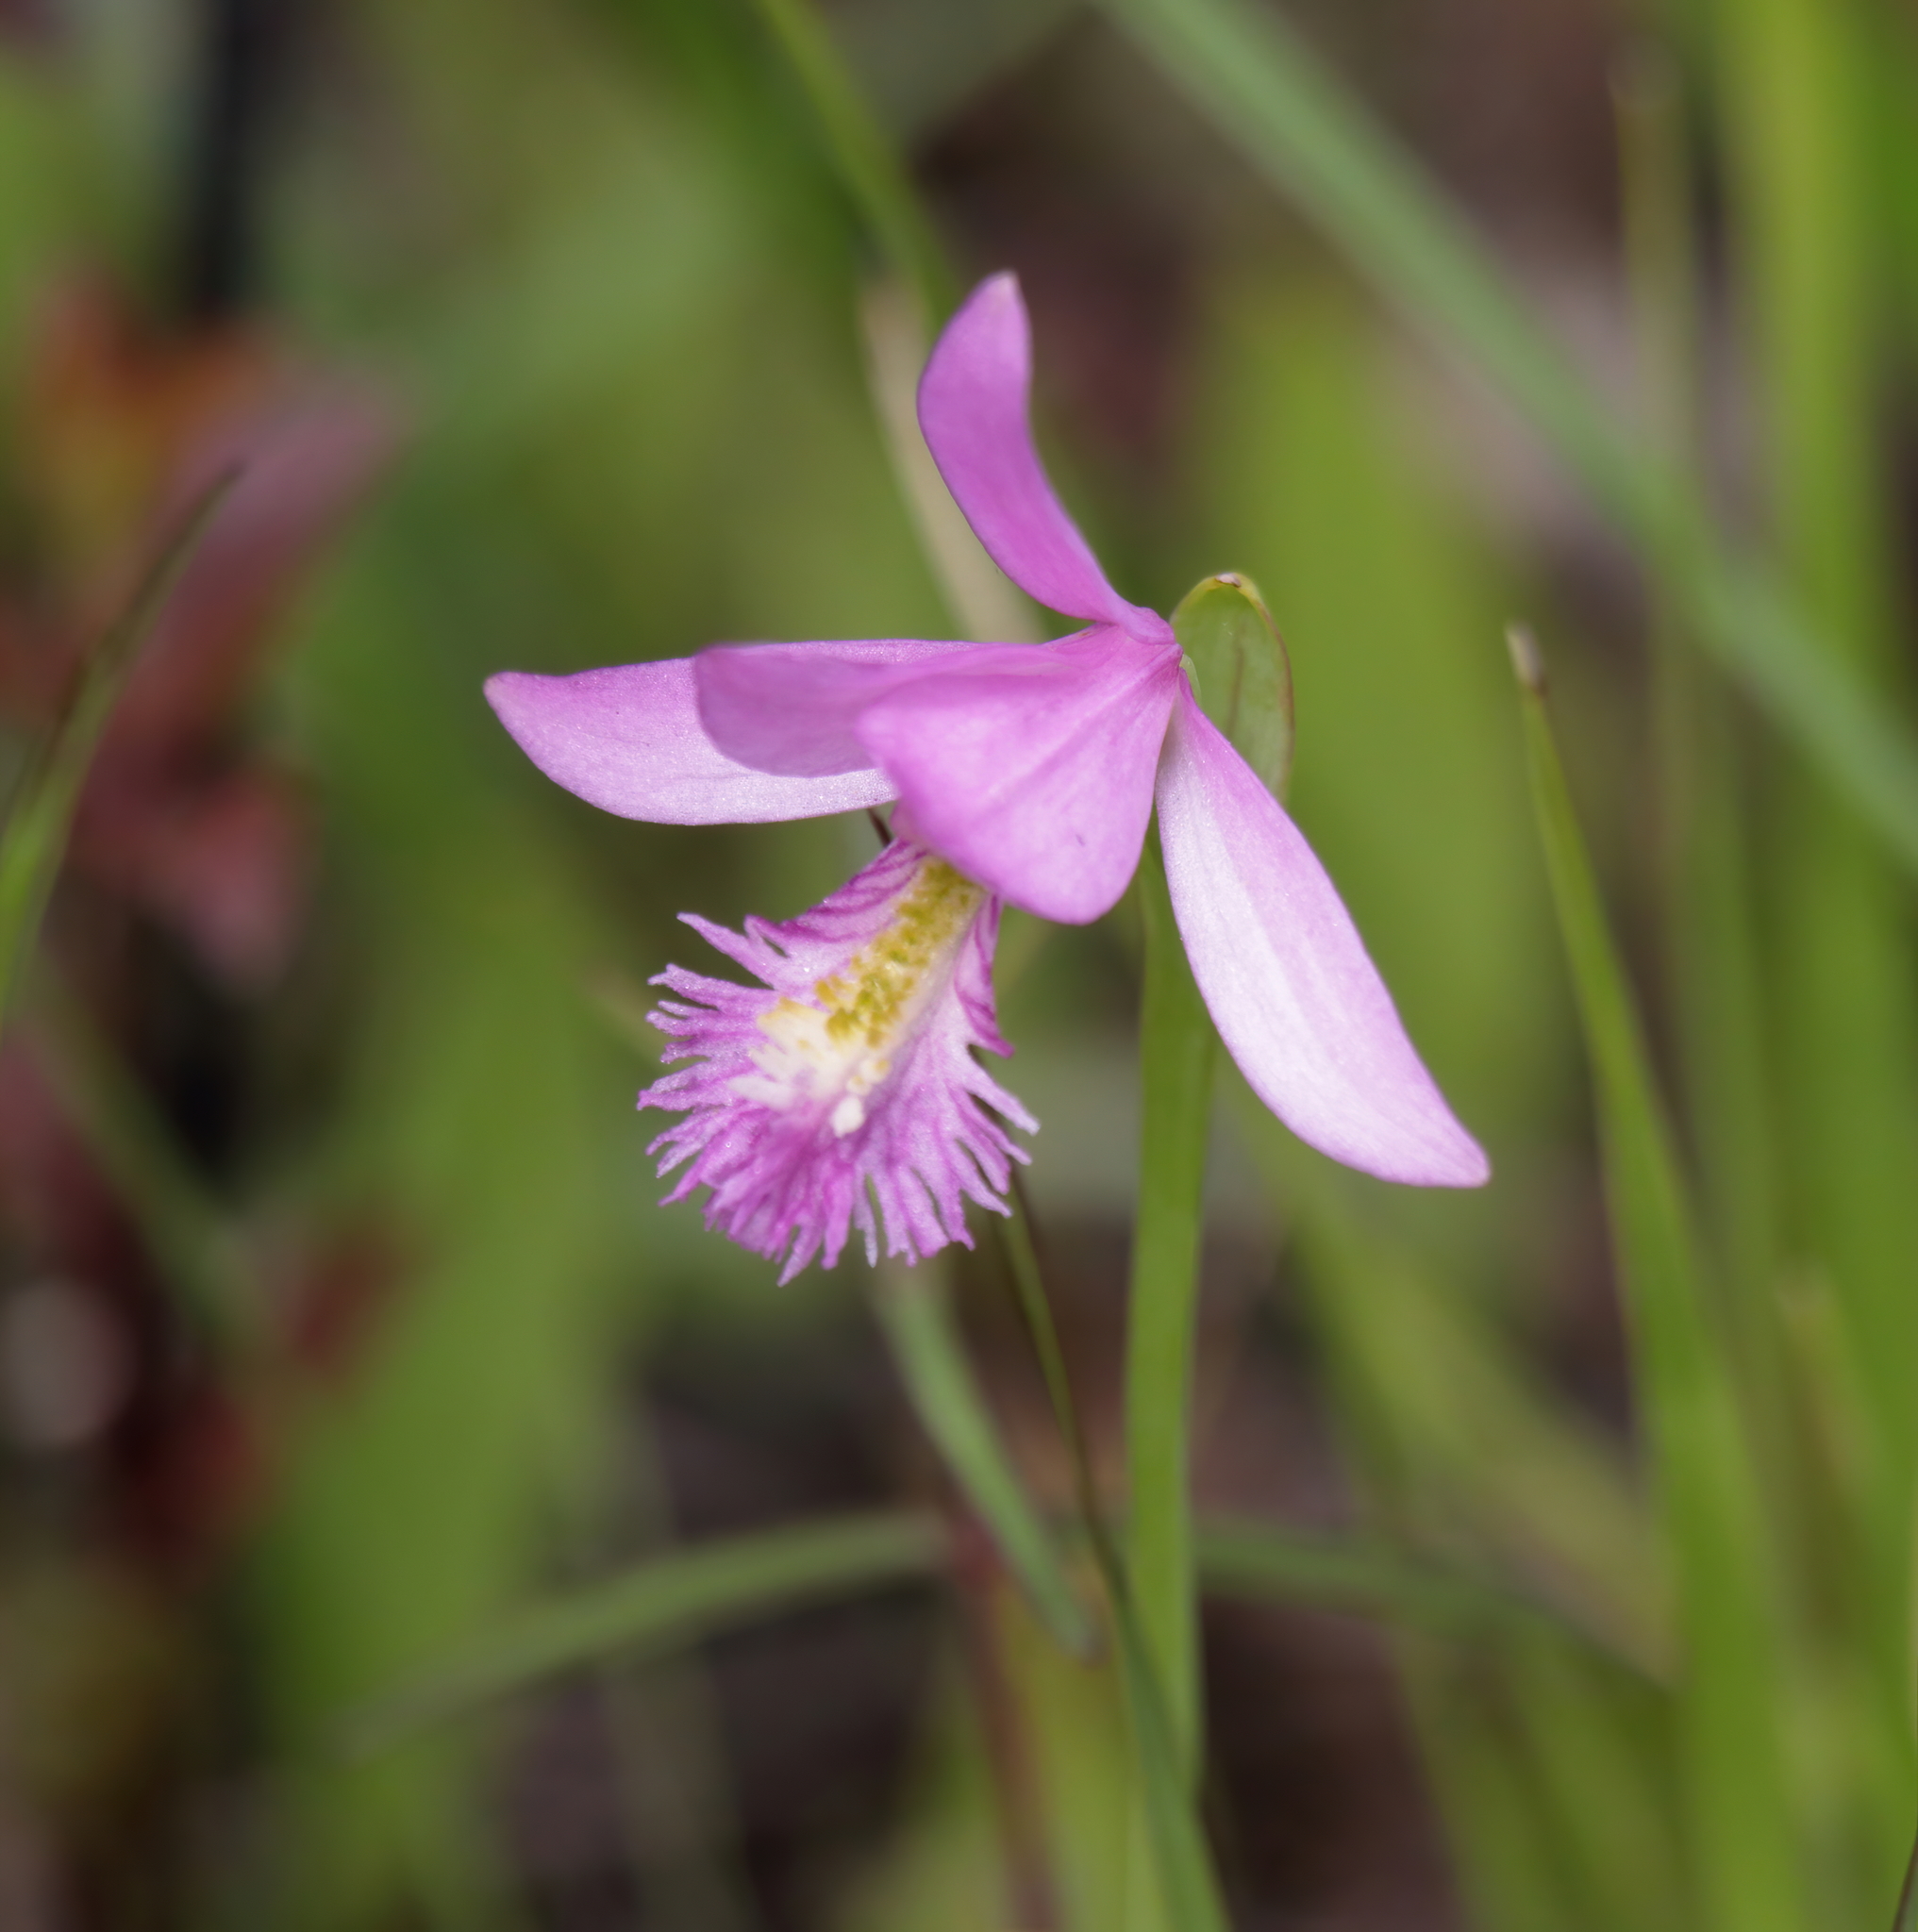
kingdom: Plantae
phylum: Tracheophyta
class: Liliopsida
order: Asparagales
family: Orchidaceae
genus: Pogonia
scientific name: Pogonia ophioglossoides
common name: Rose pogonia
